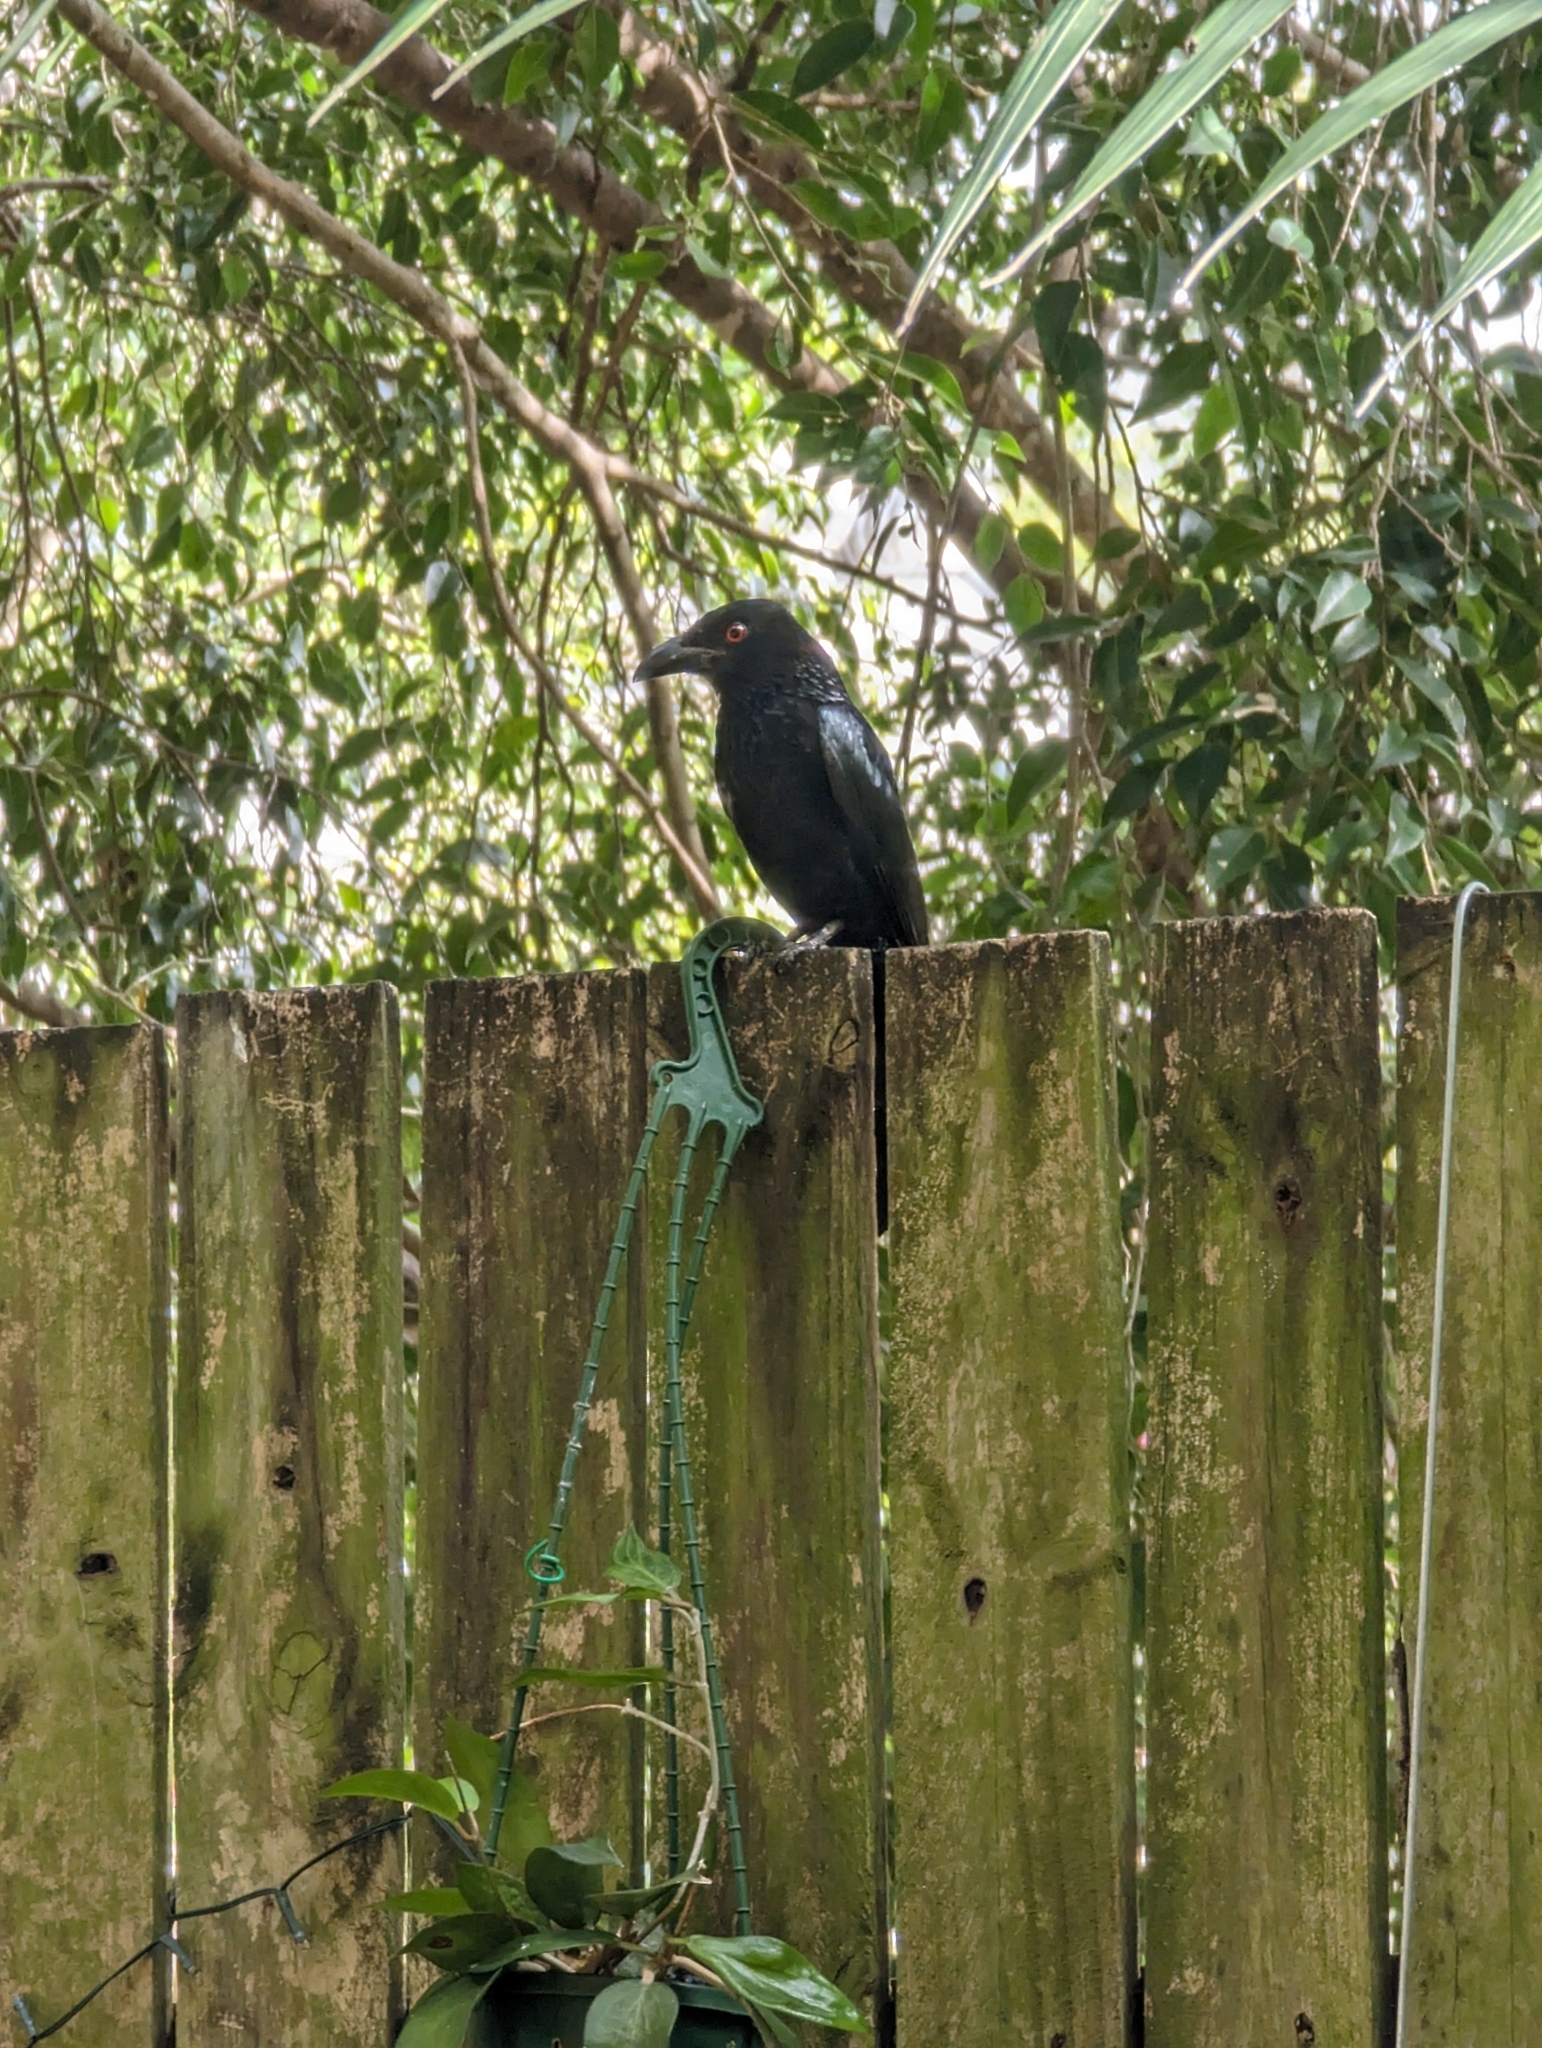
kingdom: Animalia
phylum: Chordata
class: Aves
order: Passeriformes
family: Dicruridae
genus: Dicrurus
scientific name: Dicrurus bracteatus
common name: Spangled drongo
